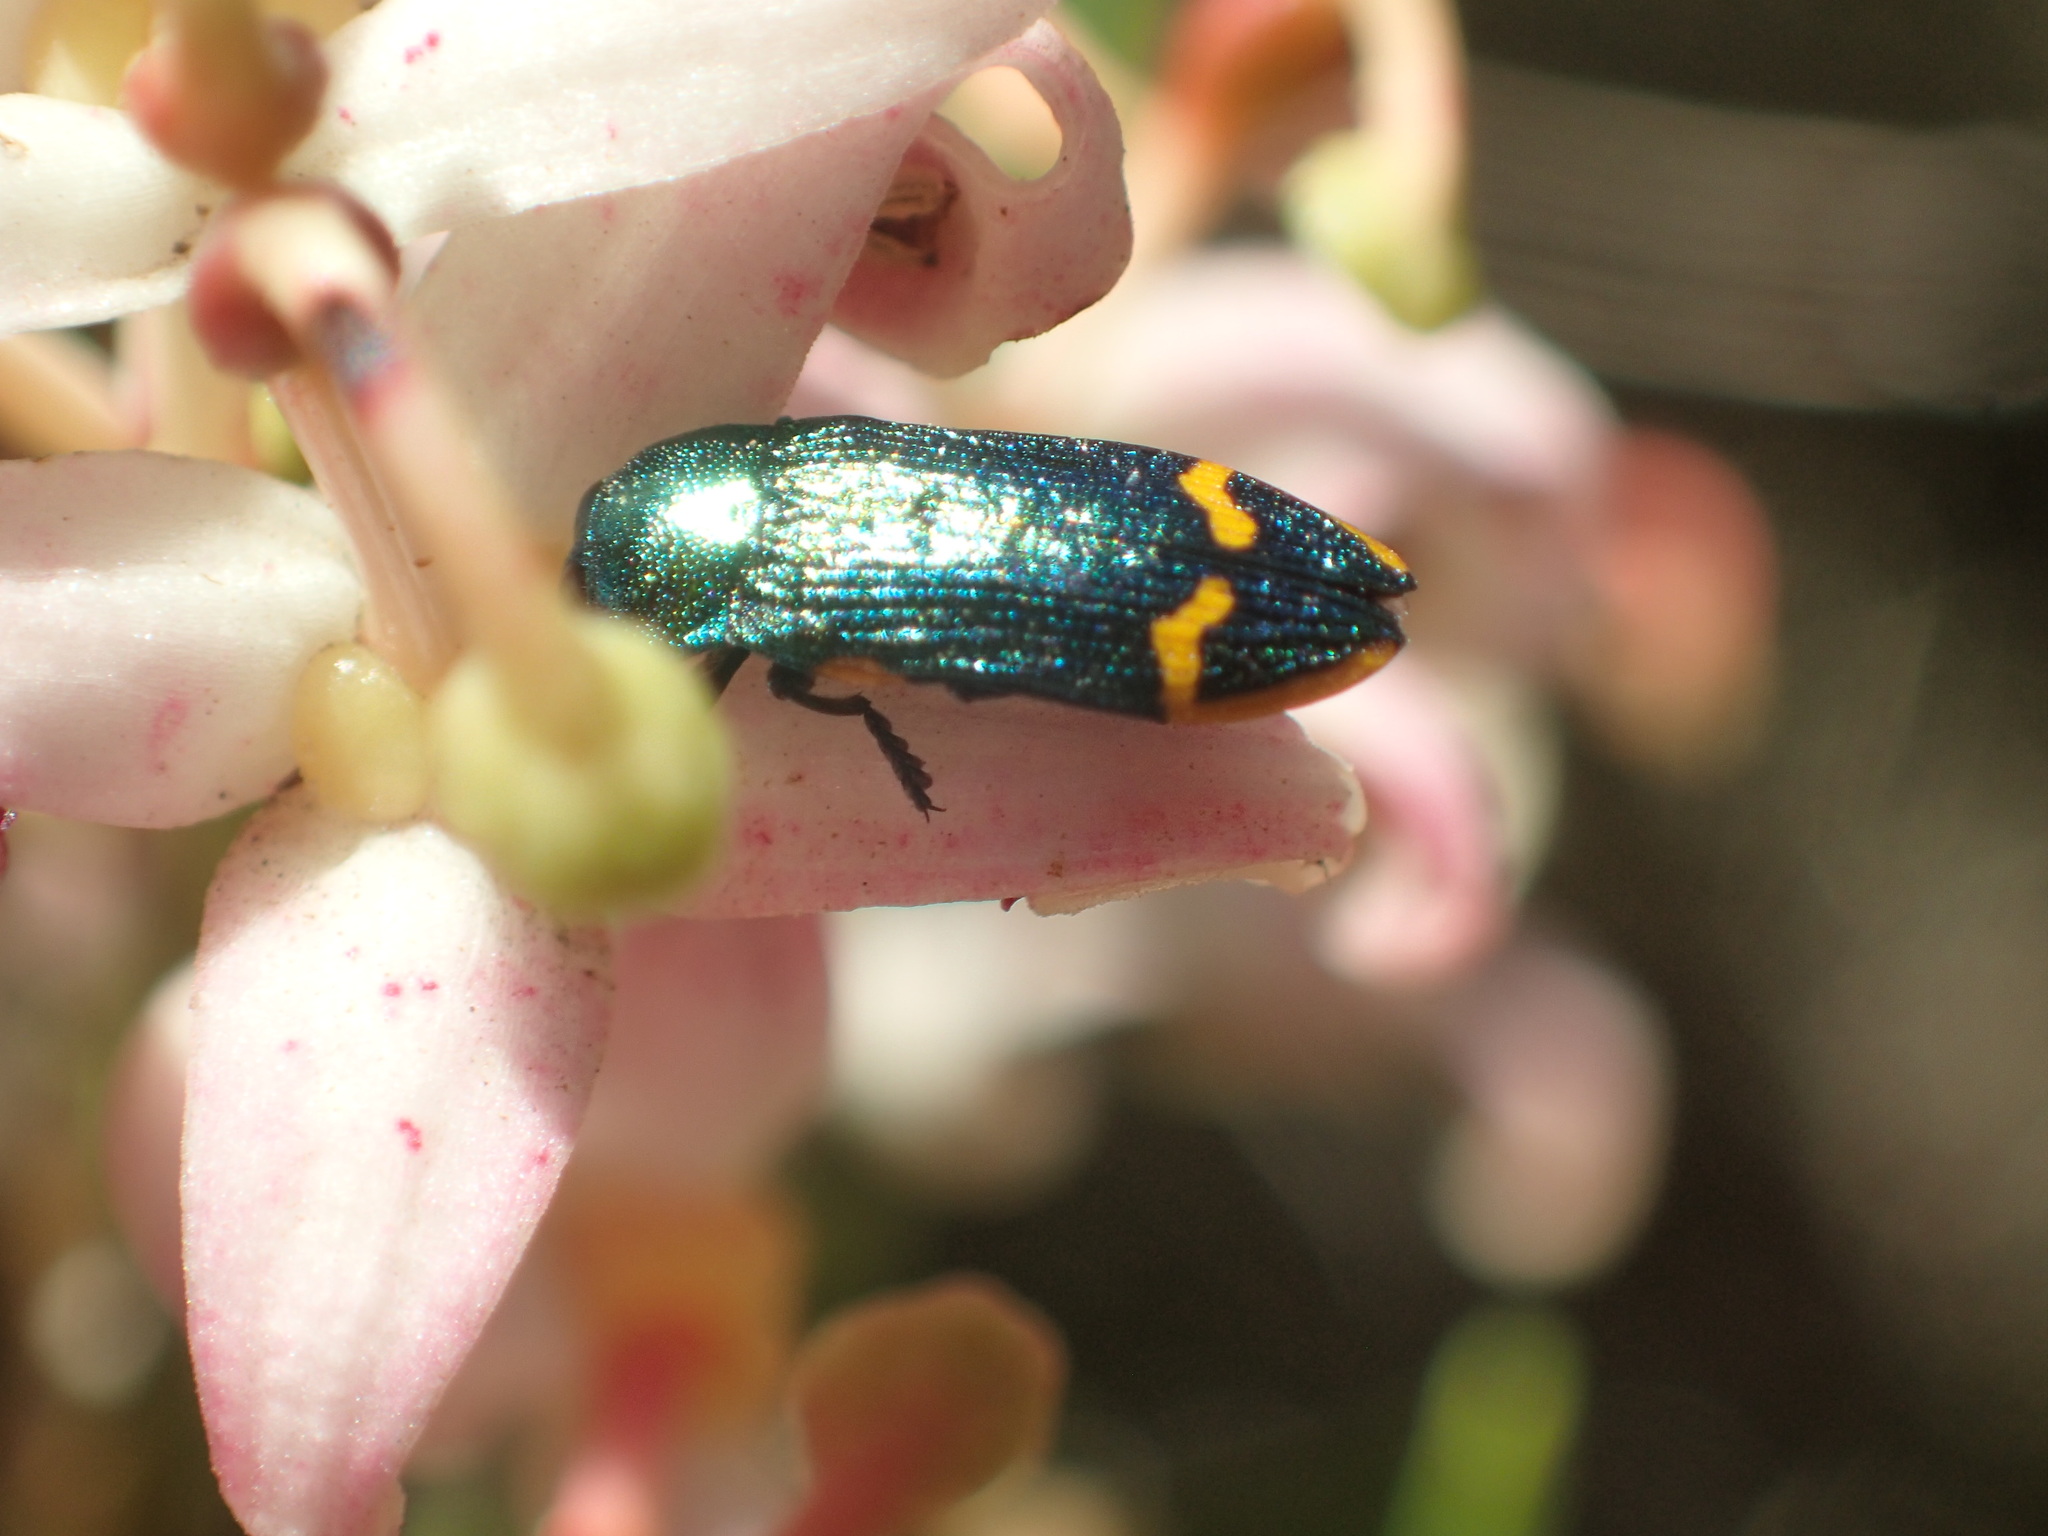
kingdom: Animalia
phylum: Arthropoda
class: Insecta
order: Coleoptera
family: Buprestidae
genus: Castiarina
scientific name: Castiarina leai
